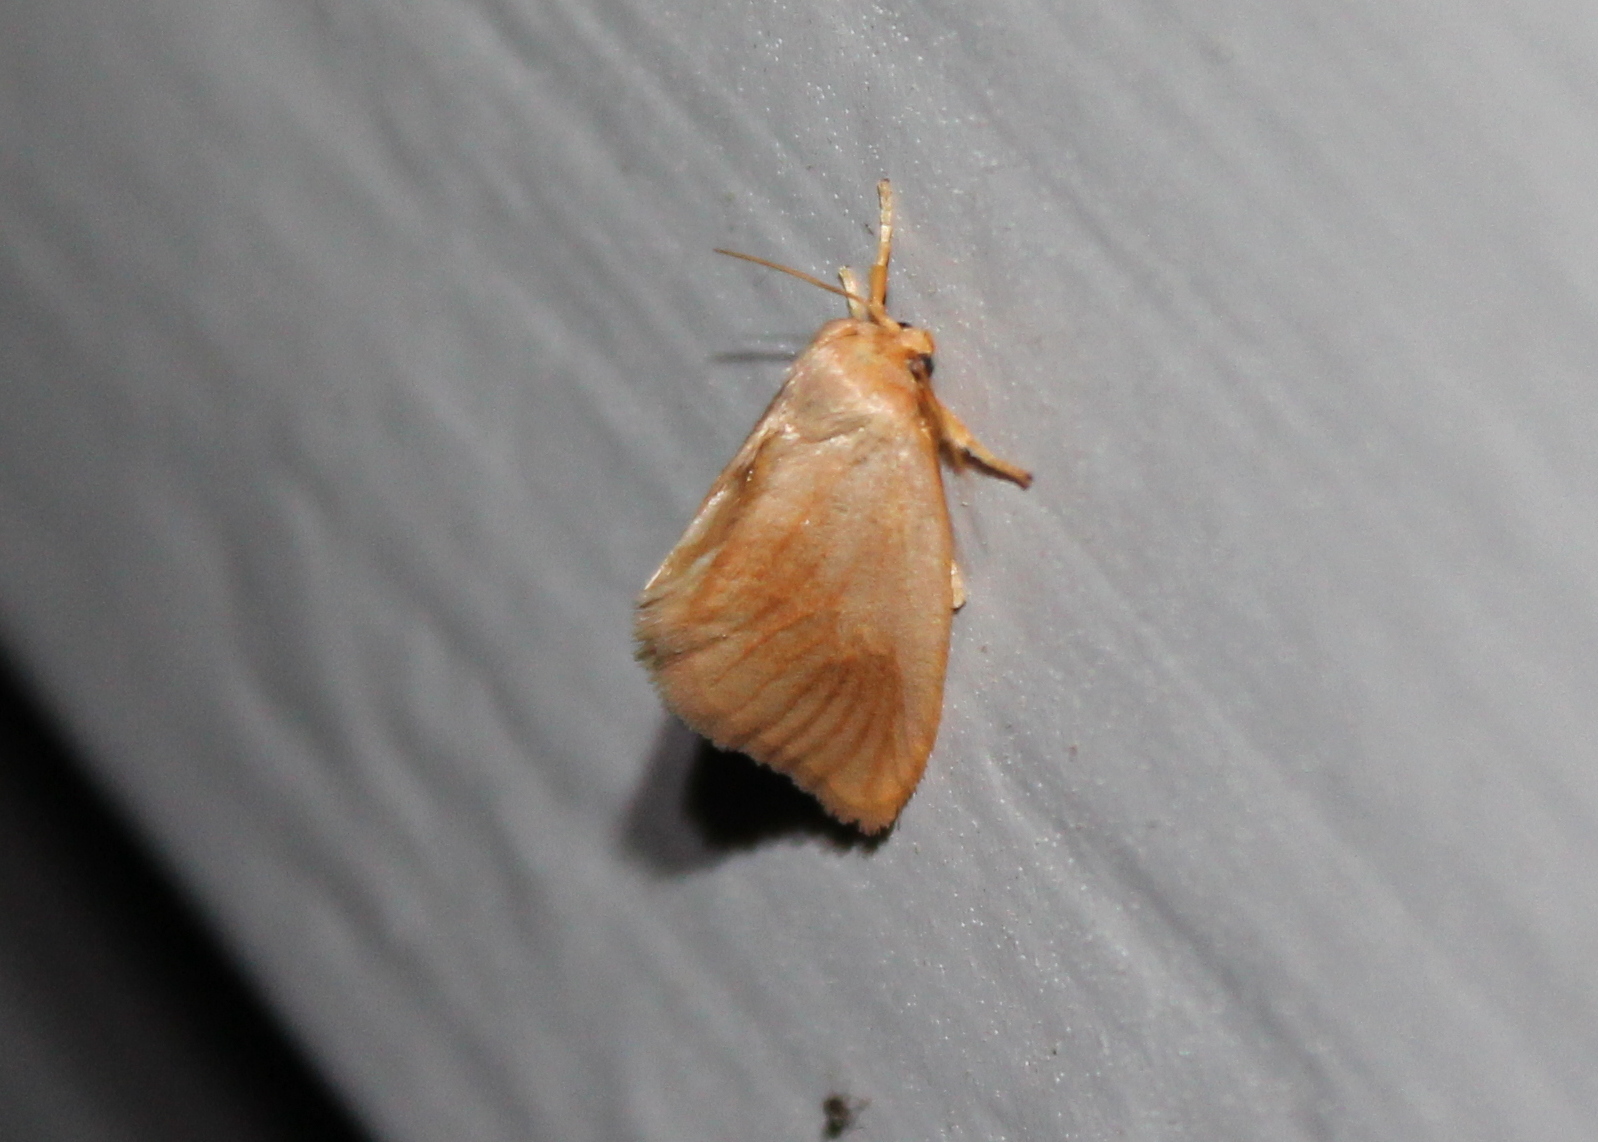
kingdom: Animalia
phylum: Arthropoda
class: Insecta
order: Lepidoptera
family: Limacodidae
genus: Tortricidia
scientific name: Tortricidia testacea
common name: Early button slug moth
